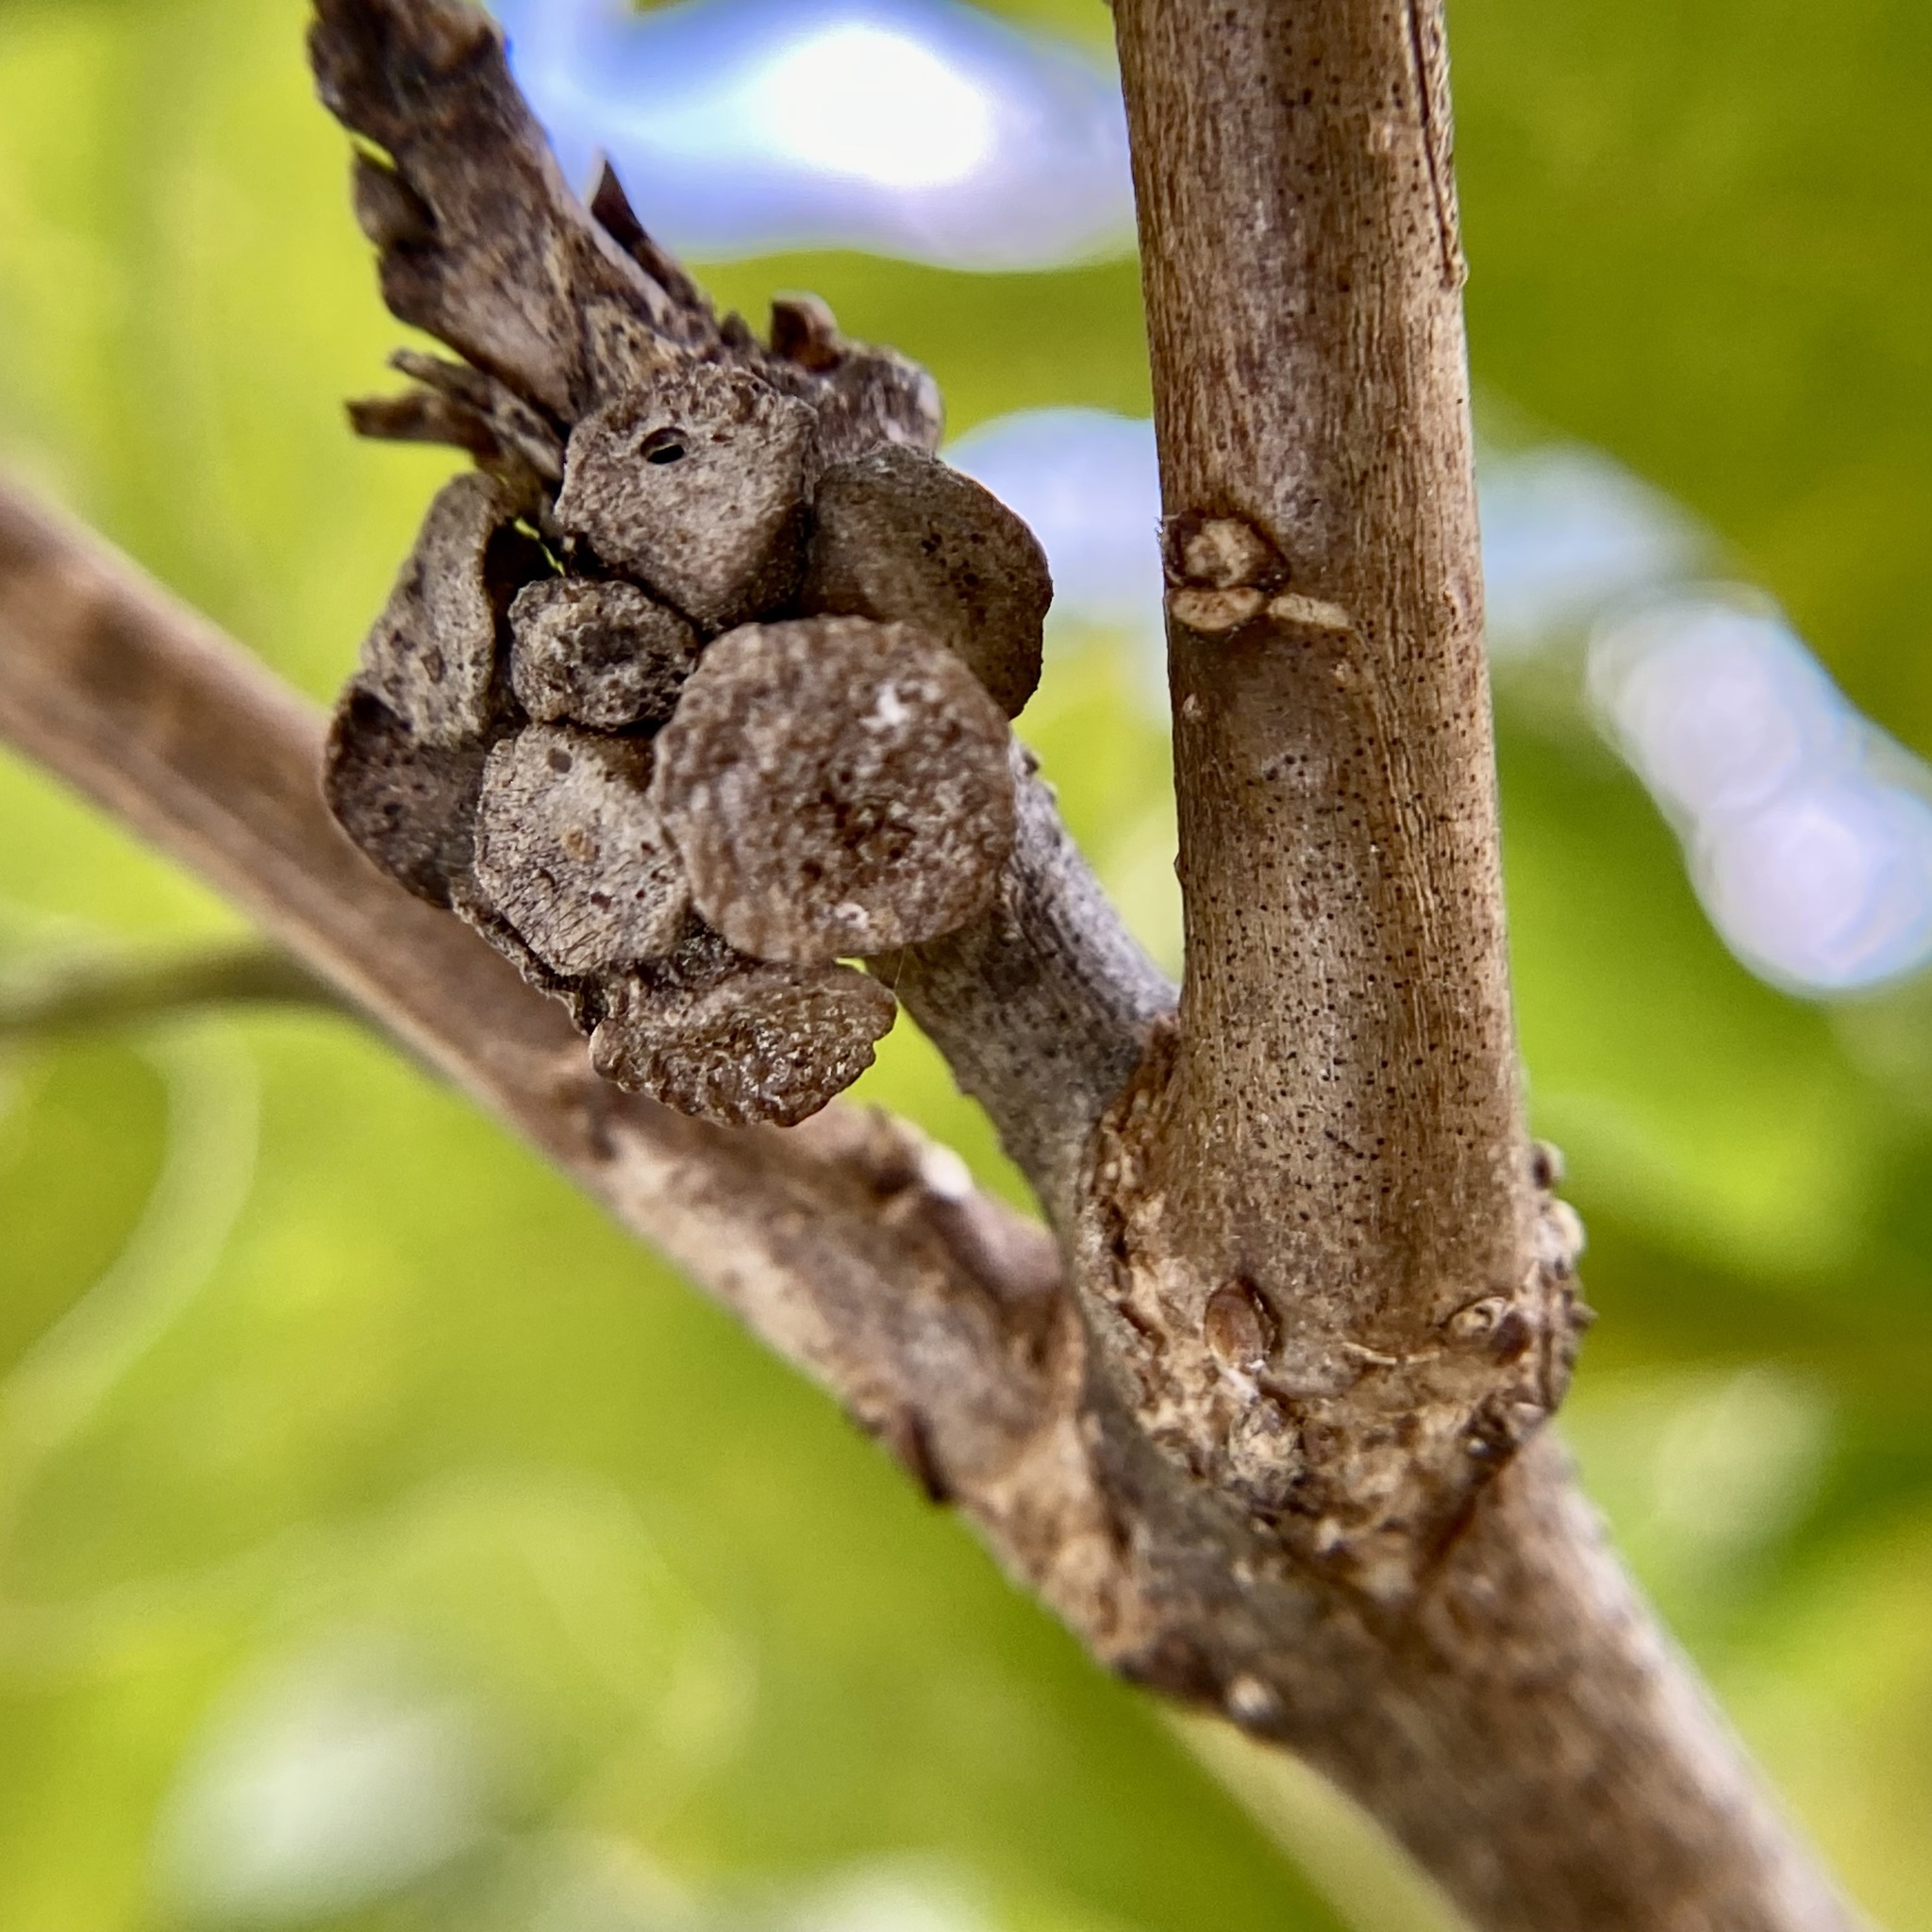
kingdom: Animalia
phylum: Arthropoda
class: Insecta
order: Hymenoptera
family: Cynipidae
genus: Andricus
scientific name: Andricus
